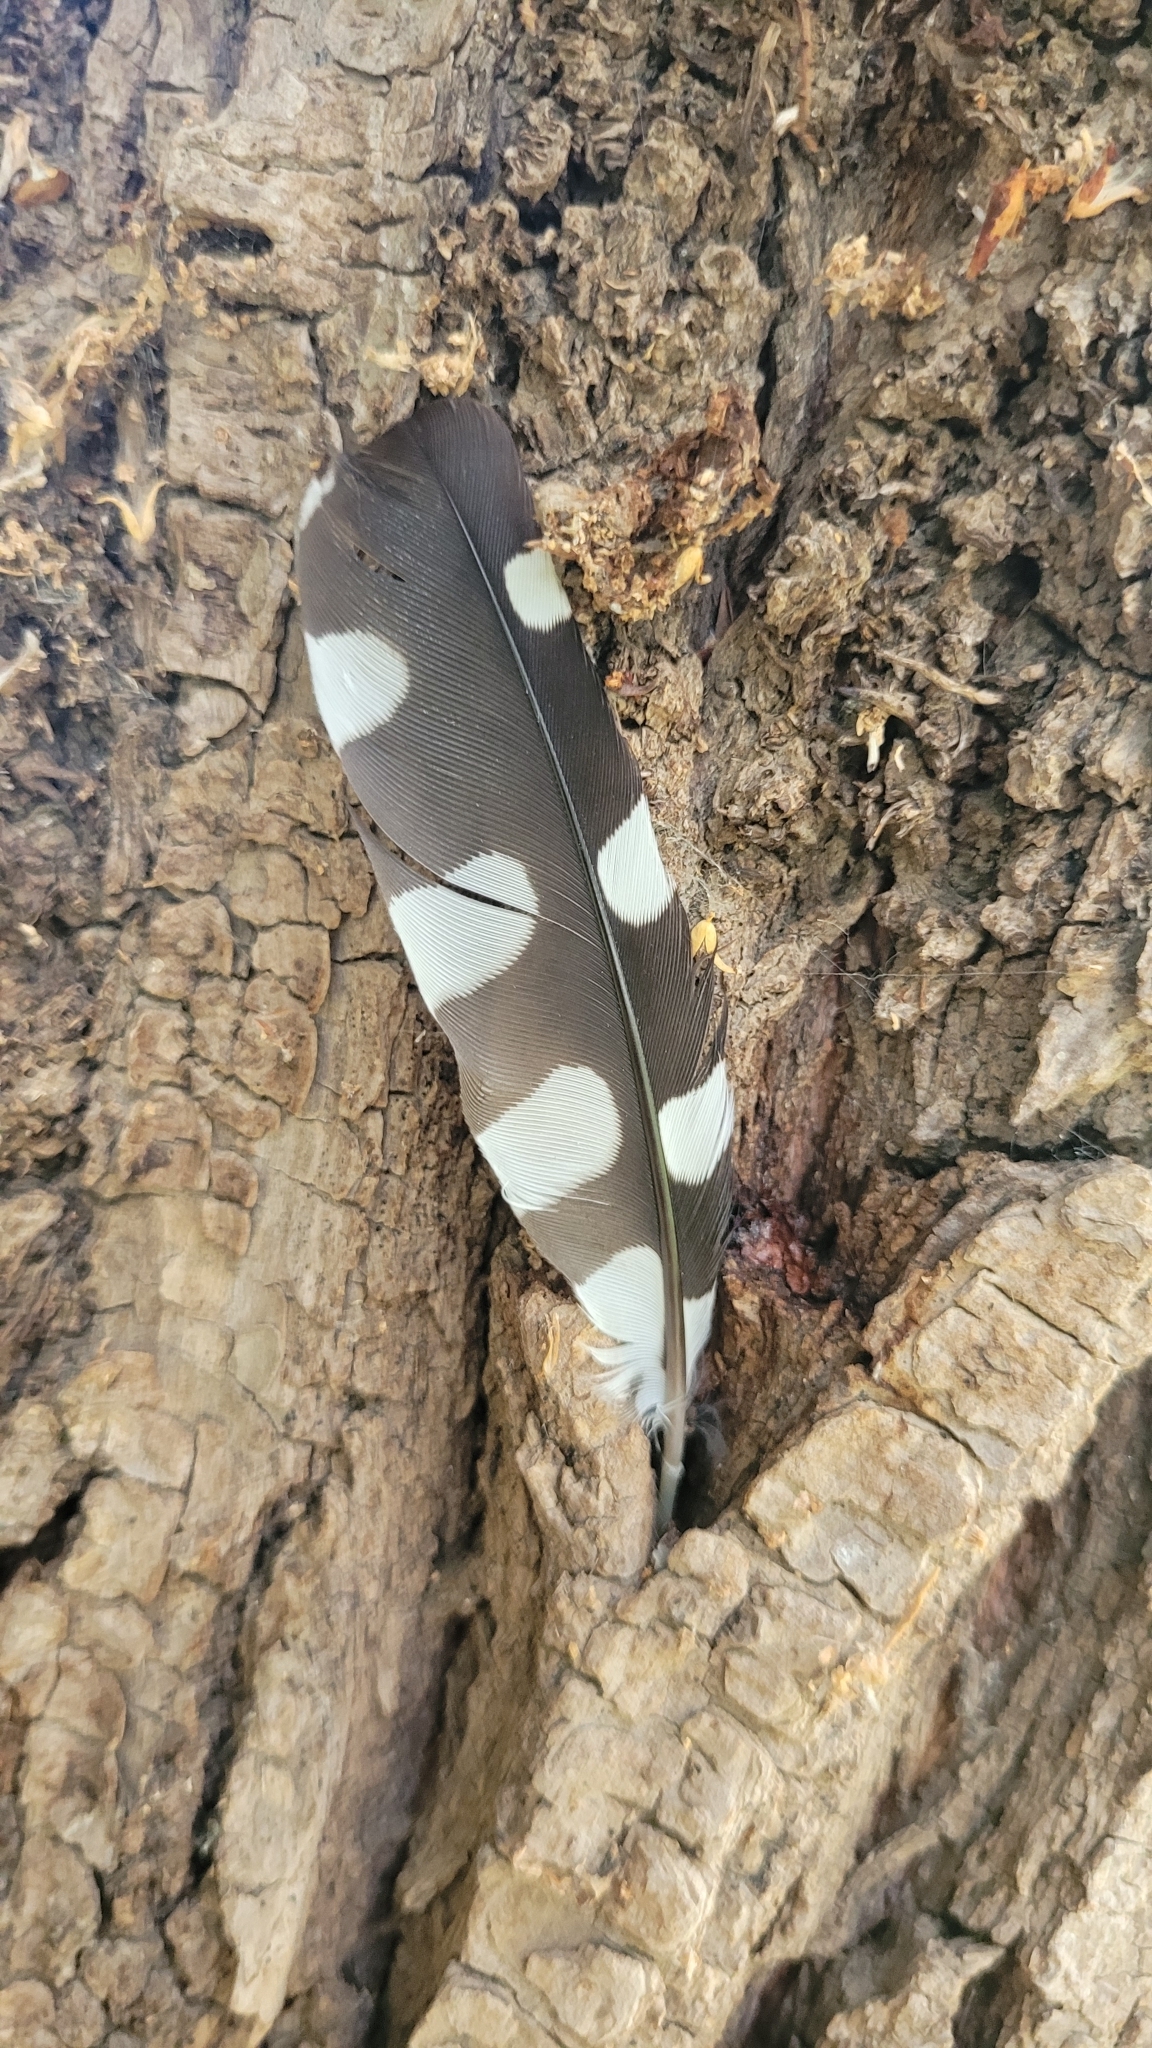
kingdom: Animalia
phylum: Chordata
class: Aves
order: Piciformes
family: Picidae
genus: Dendrocopos
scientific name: Dendrocopos syriacus
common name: Syrian woodpecker
